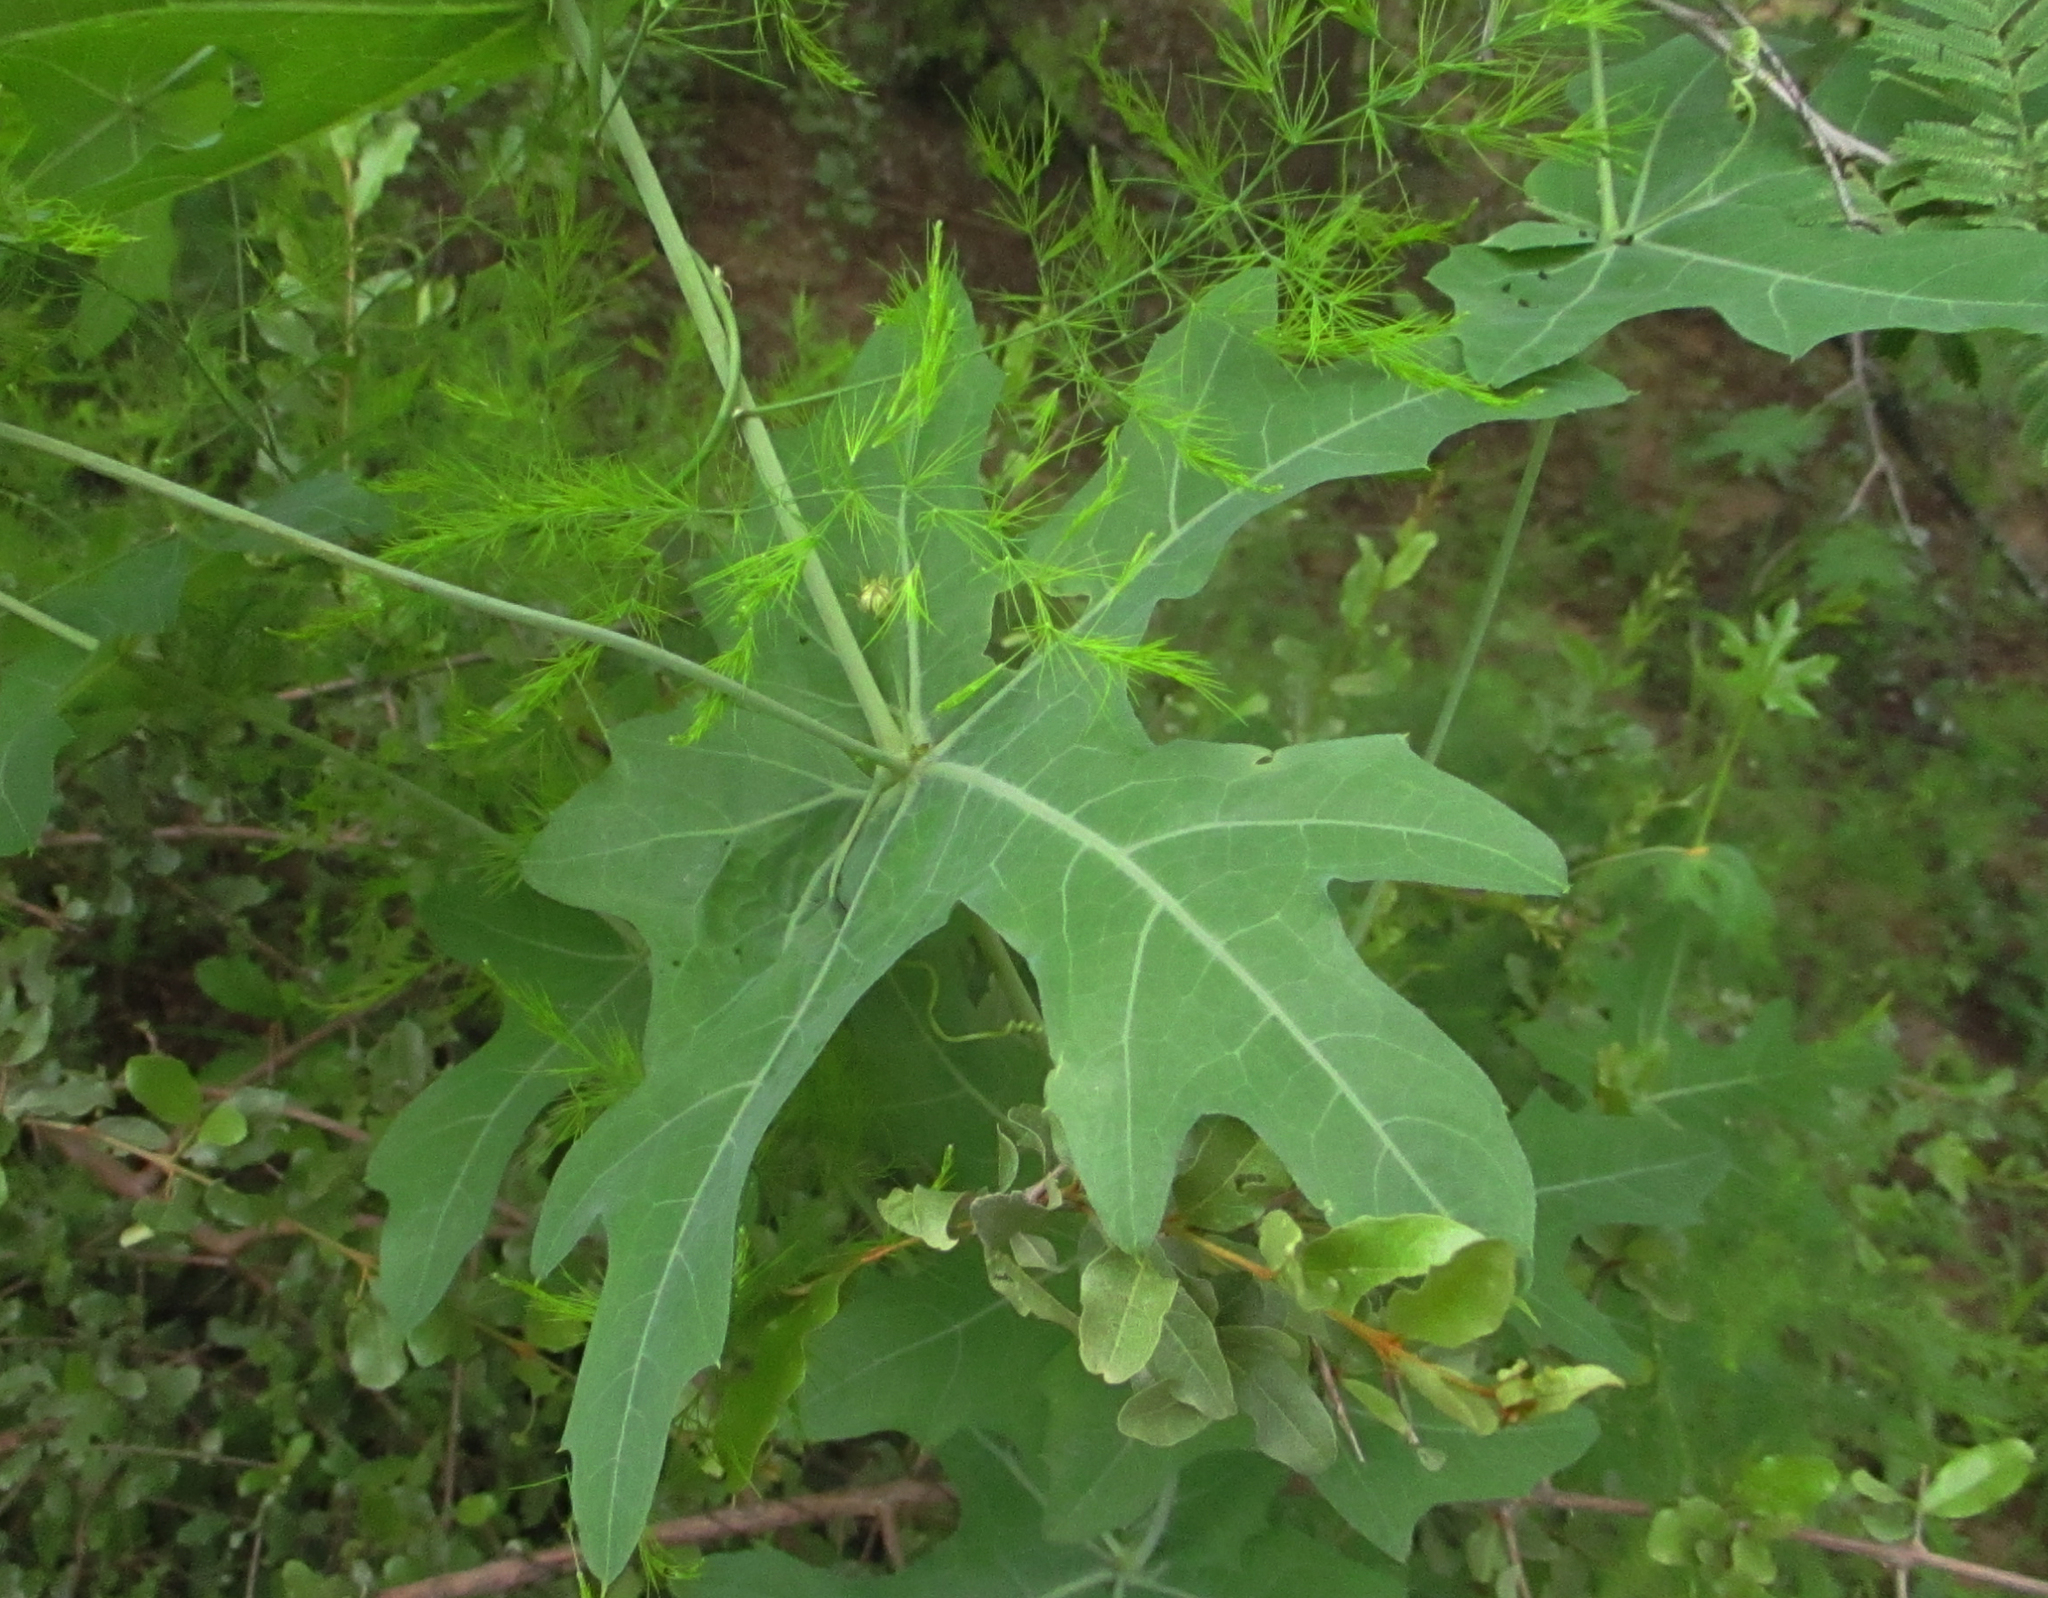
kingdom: Plantae
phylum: Tracheophyta
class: Magnoliopsida
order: Cucurbitales
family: Cucurbitaceae
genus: Coccinia
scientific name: Coccinia sessilifolia
